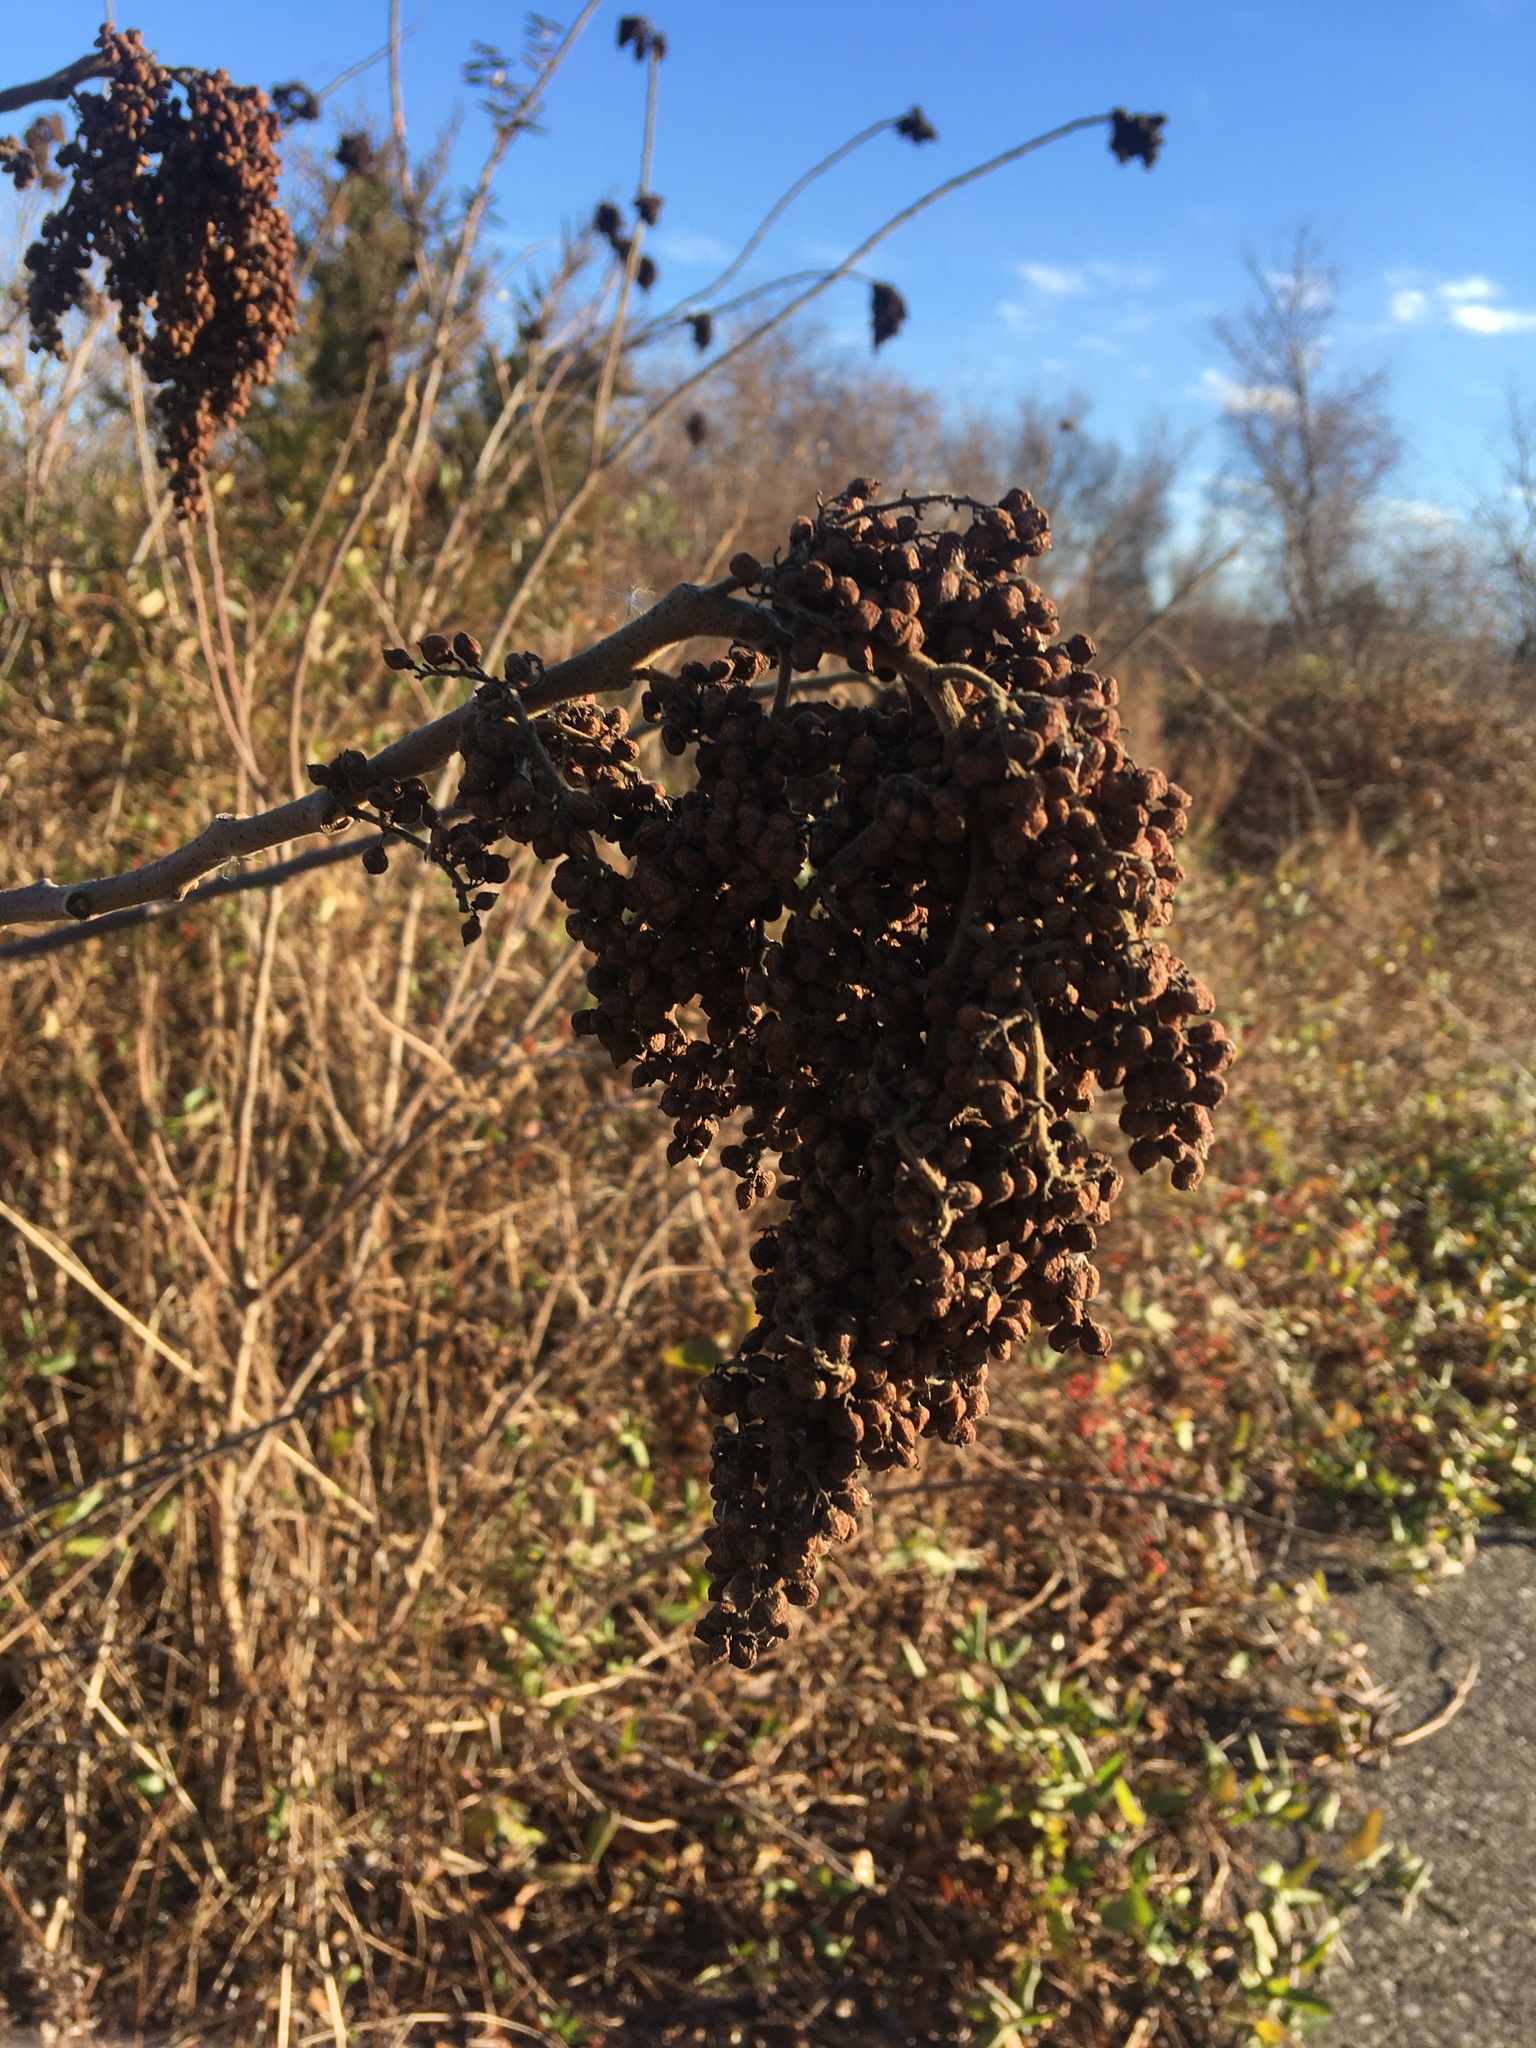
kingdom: Plantae
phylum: Tracheophyta
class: Magnoliopsida
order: Sapindales
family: Anacardiaceae
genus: Rhus
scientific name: Rhus copallina
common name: Shining sumac
